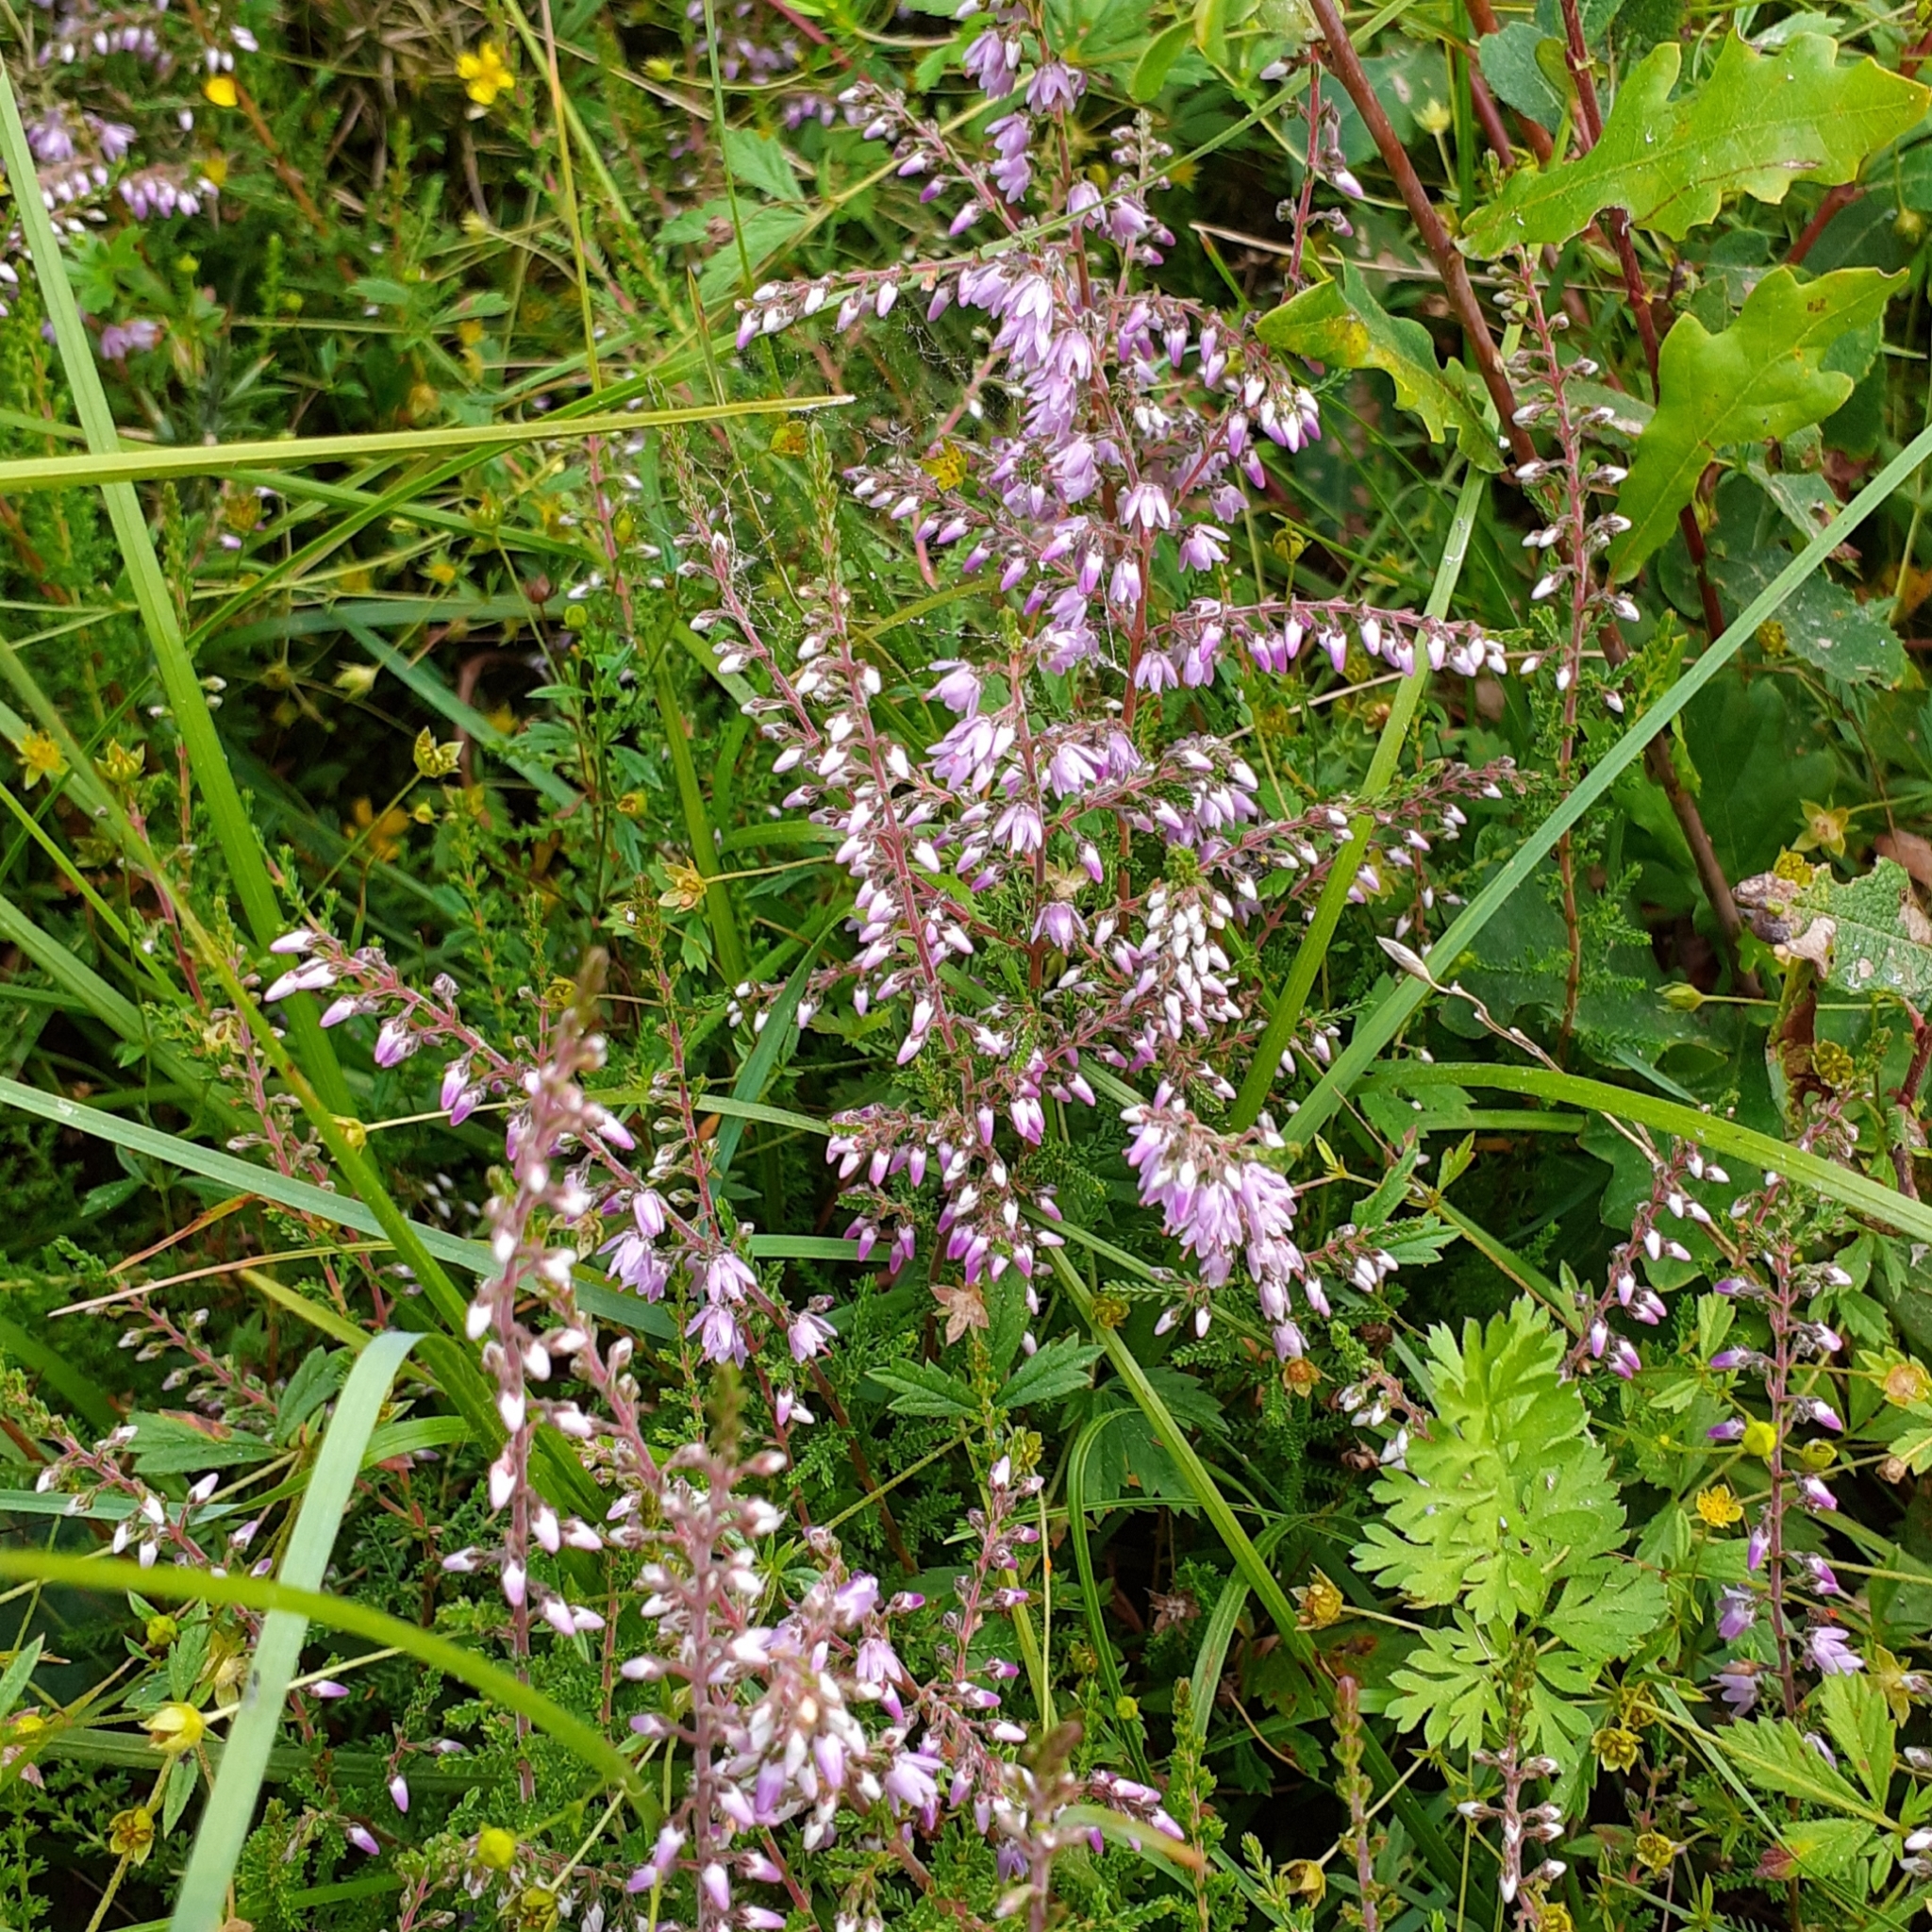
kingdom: Plantae
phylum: Tracheophyta
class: Magnoliopsida
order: Ericales
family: Ericaceae
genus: Calluna
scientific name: Calluna vulgaris
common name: Heather
